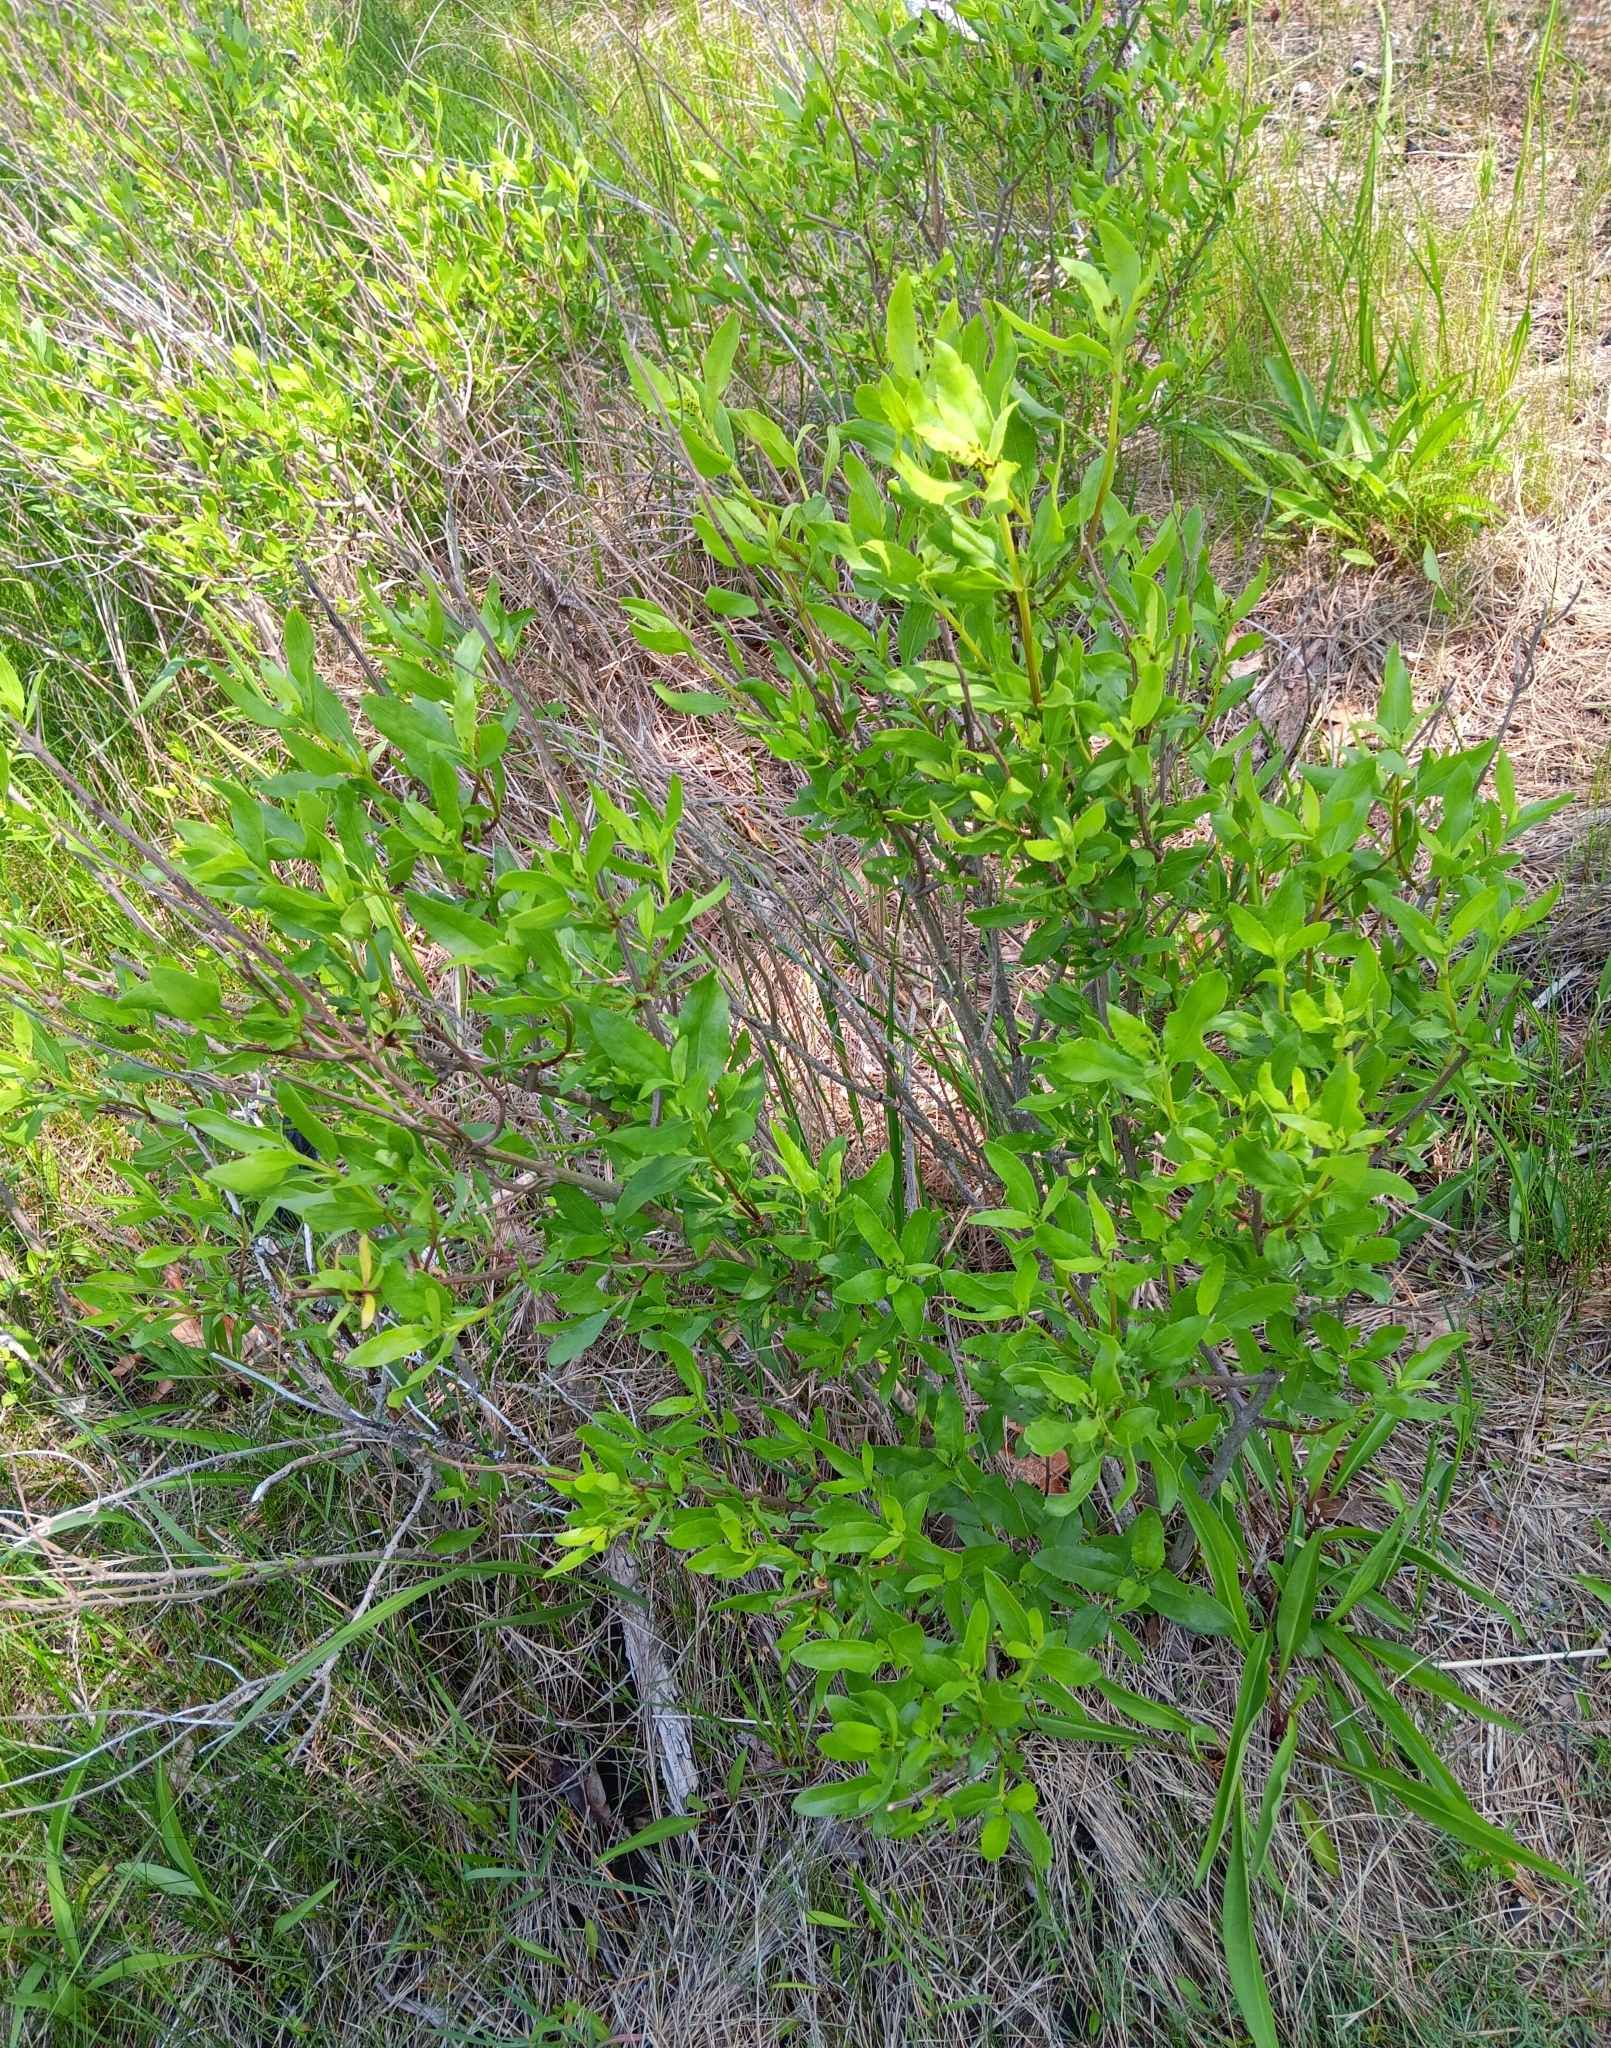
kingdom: Plantae
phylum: Tracheophyta
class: Magnoliopsida
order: Asterales
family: Asteraceae
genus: Iva
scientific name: Iva frutescens
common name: Big-leaved marsh-elder
